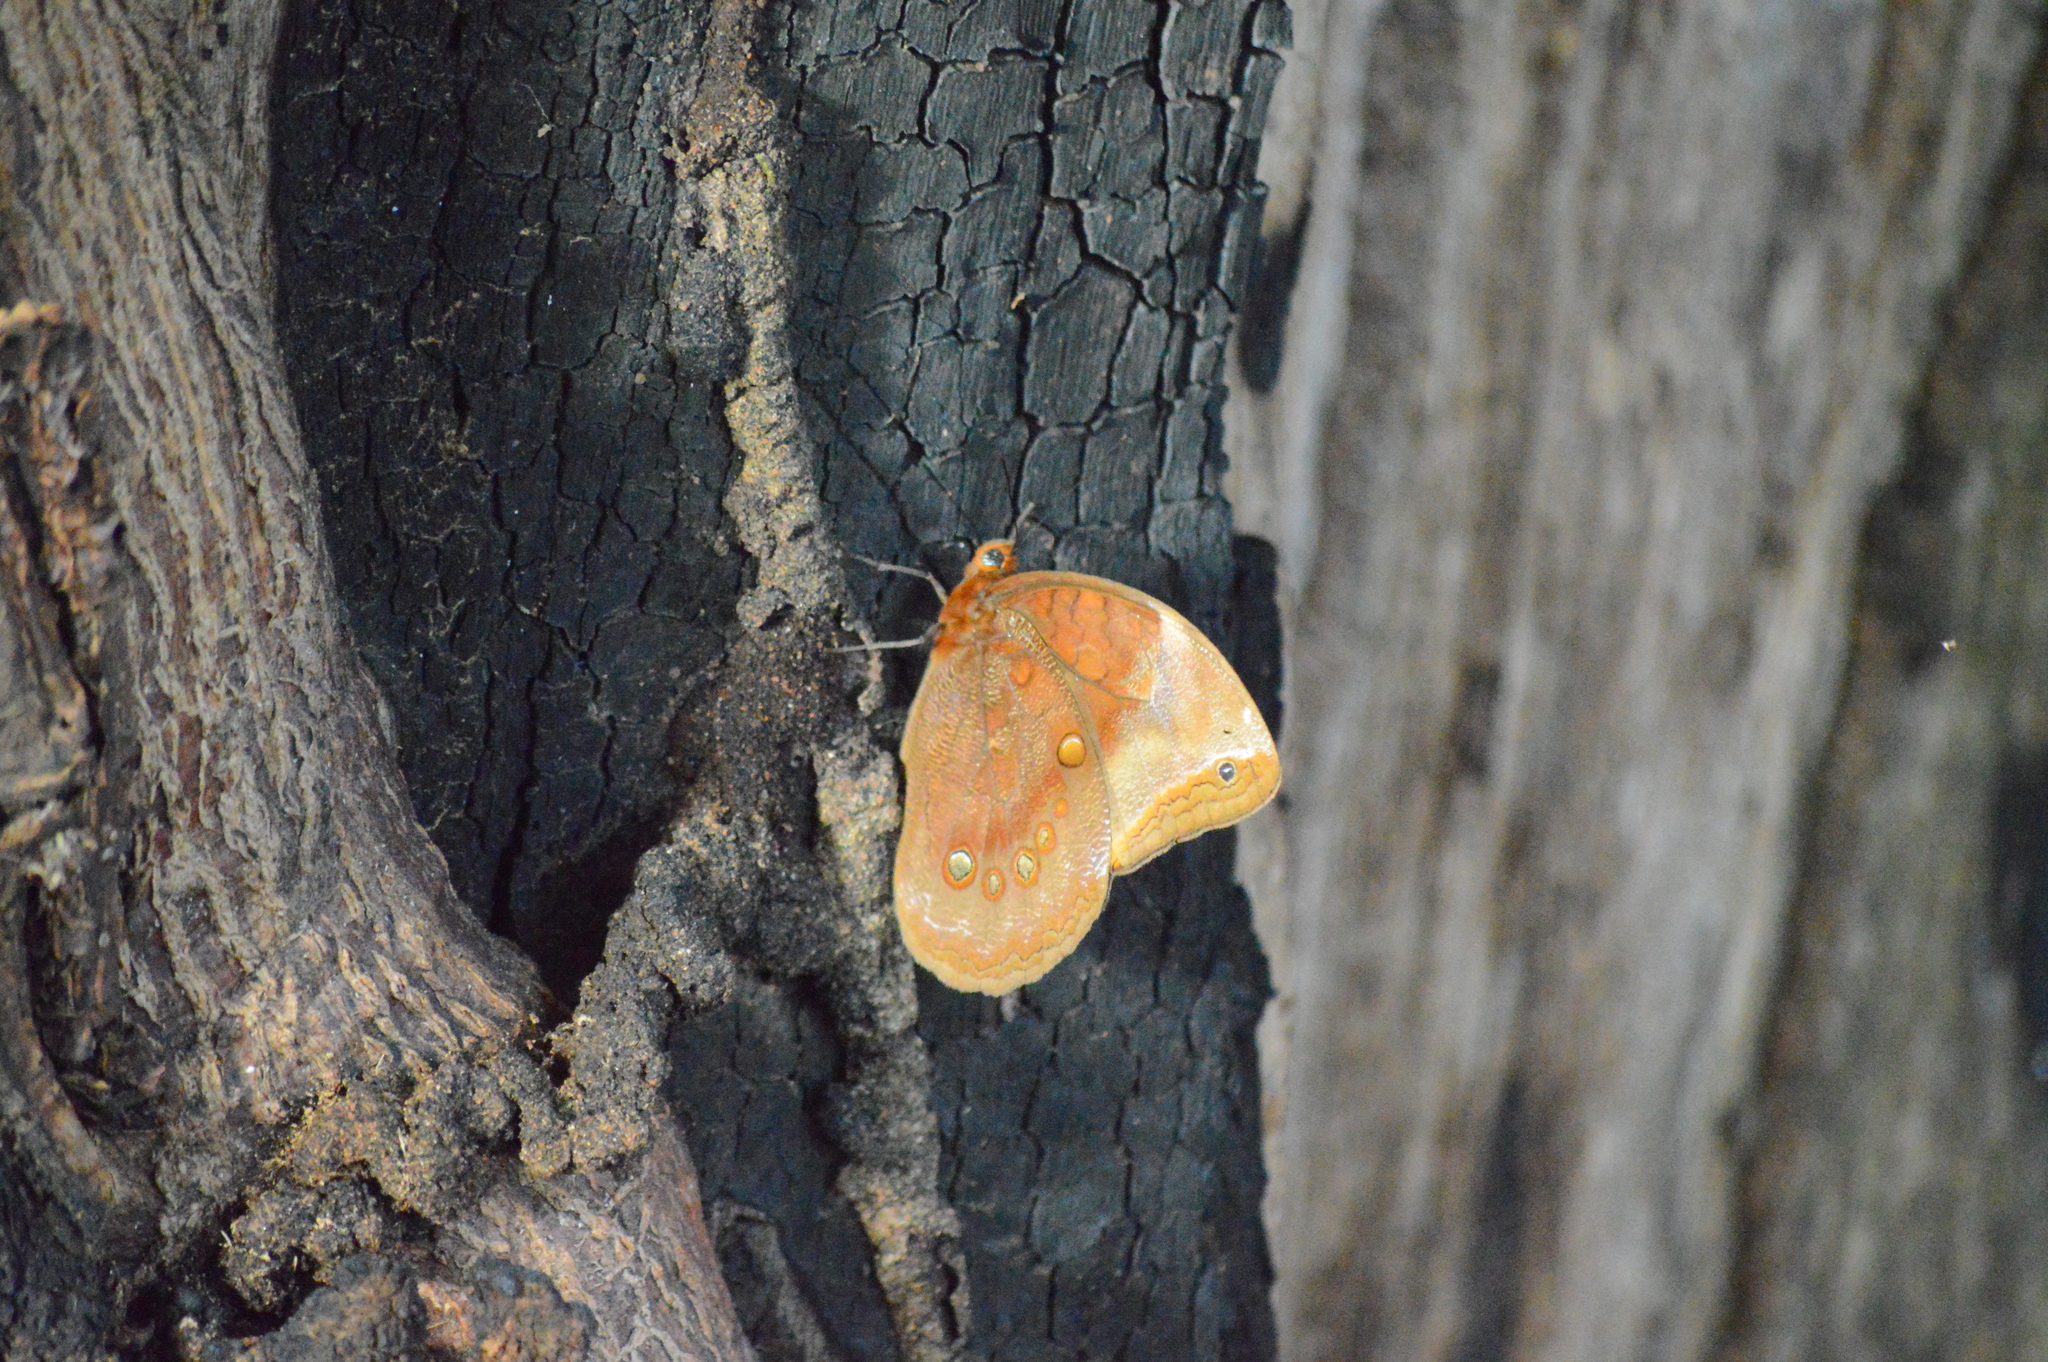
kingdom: Animalia
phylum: Arthropoda
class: Insecta
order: Lepidoptera
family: Nymphalidae
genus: Catoblepia
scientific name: Catoblepia berecynthia
